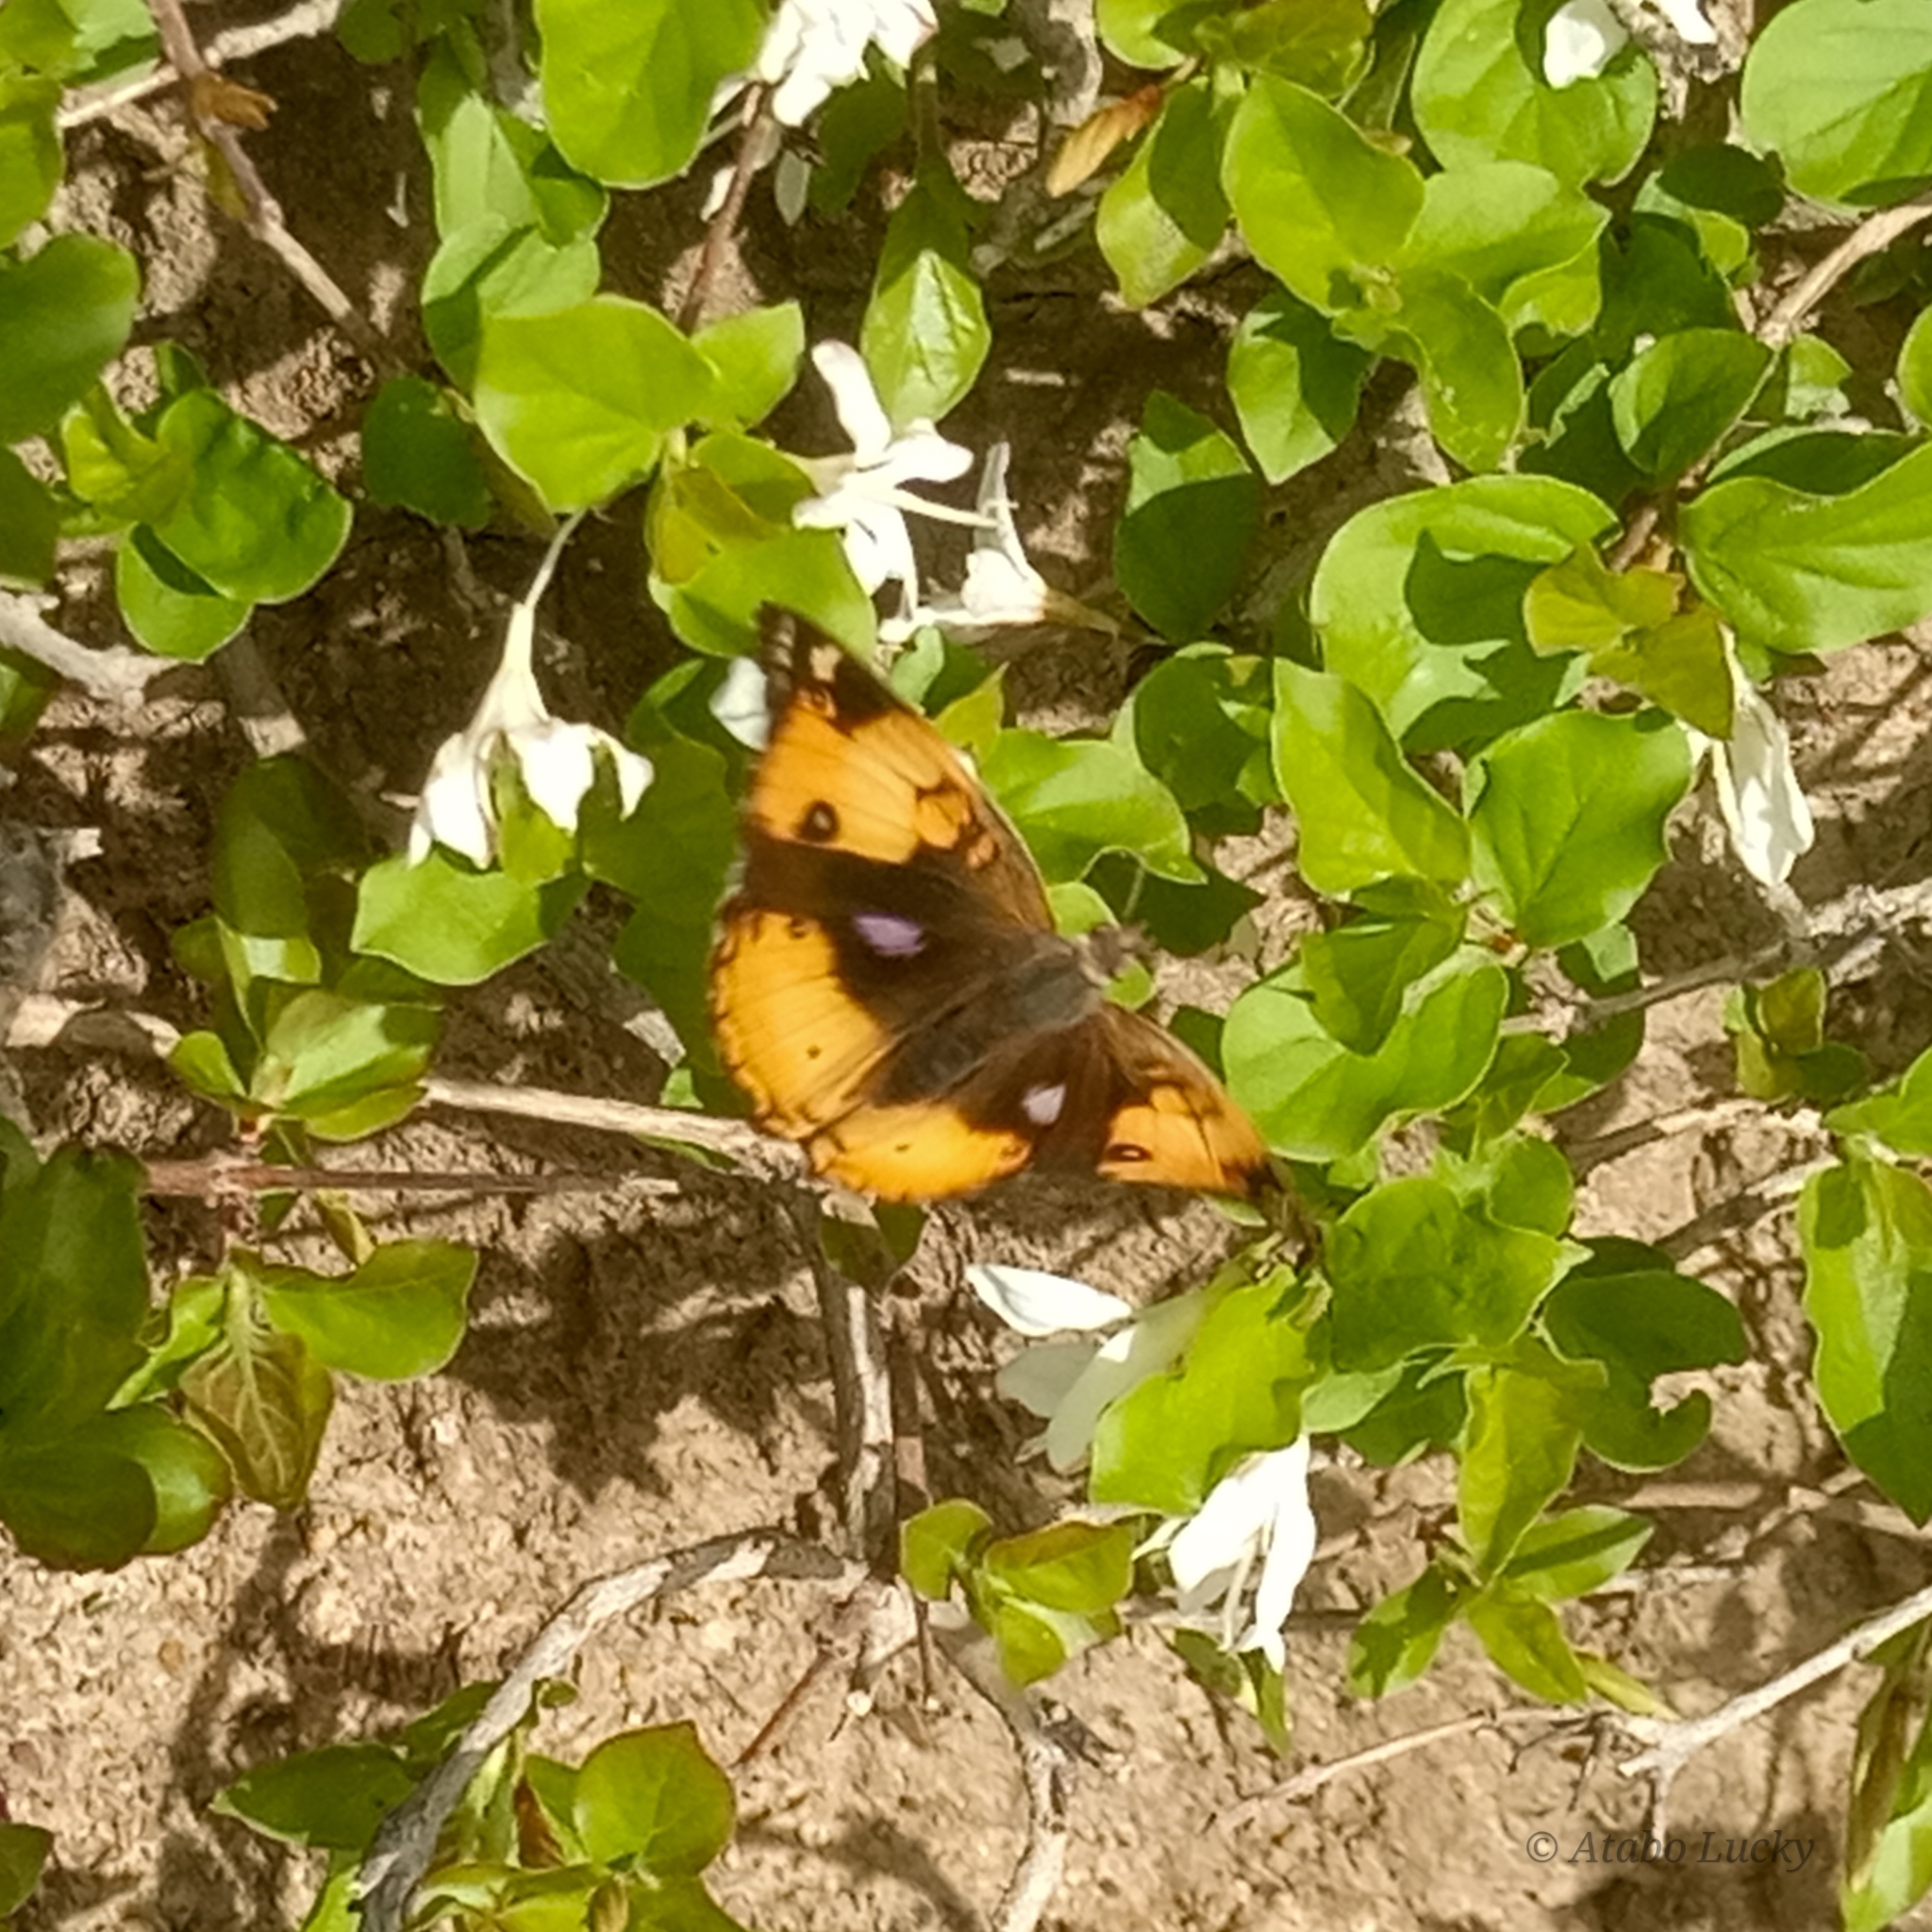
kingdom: Animalia
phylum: Arthropoda
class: Insecta
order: Lepidoptera
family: Nymphalidae
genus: Junonia
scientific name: Junonia hierta
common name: Yellow pansy
